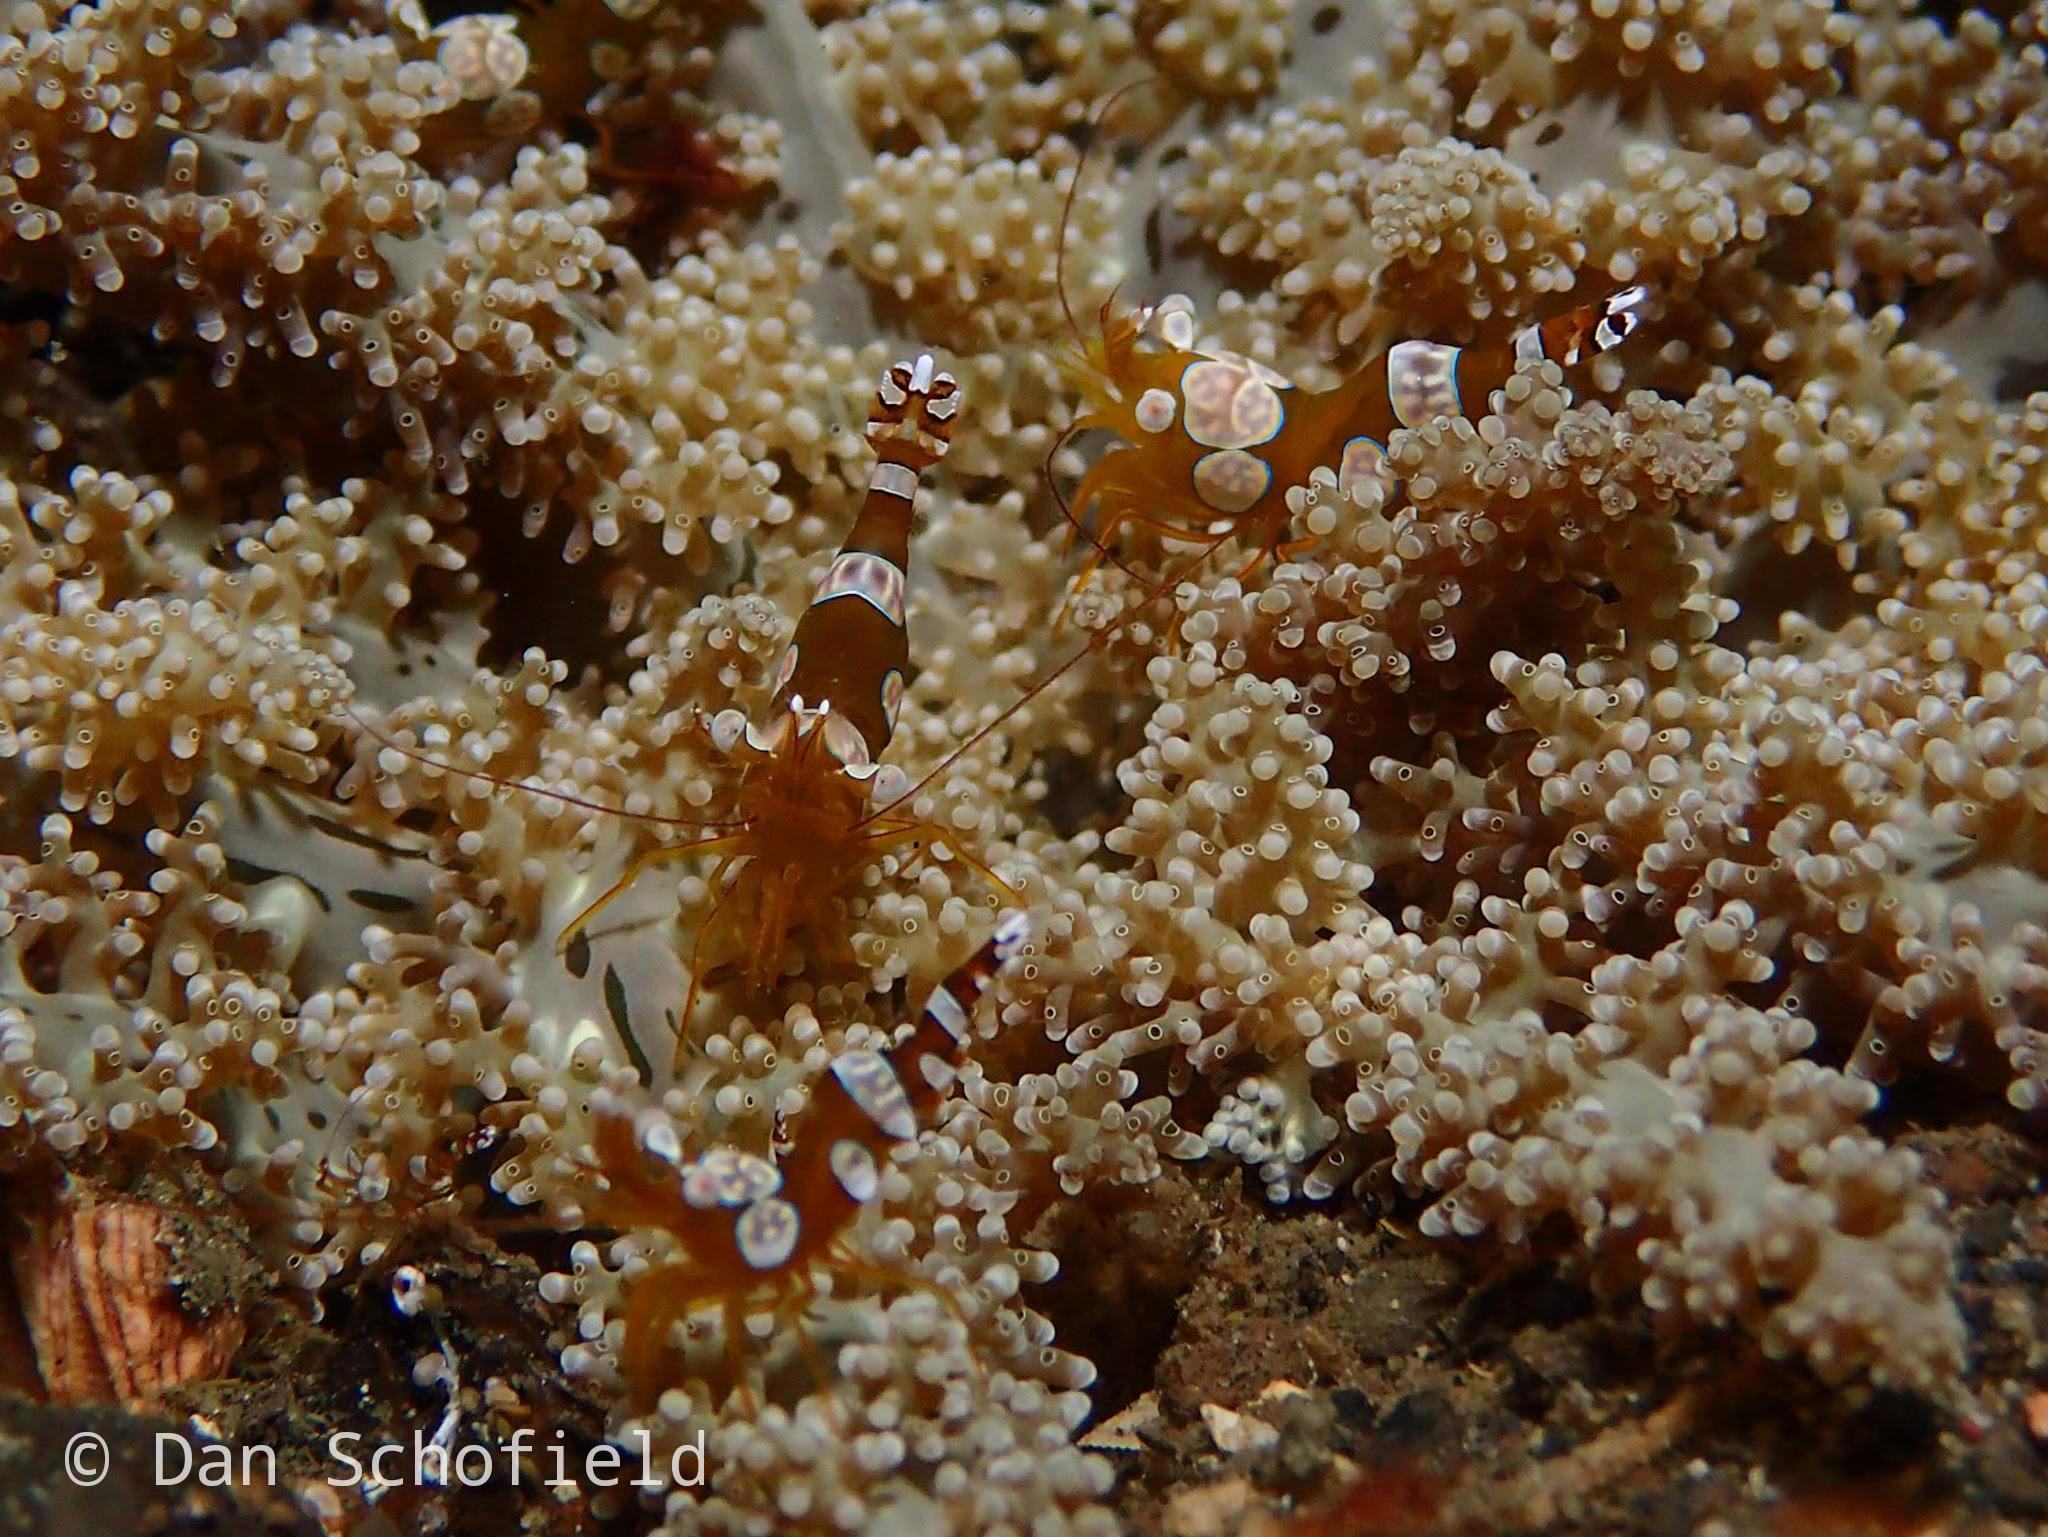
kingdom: Animalia
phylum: Arthropoda
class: Malacostraca
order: Decapoda
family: Thoridae
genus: Thor
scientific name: Thor amboinensis
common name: Squat anemone shrimp
